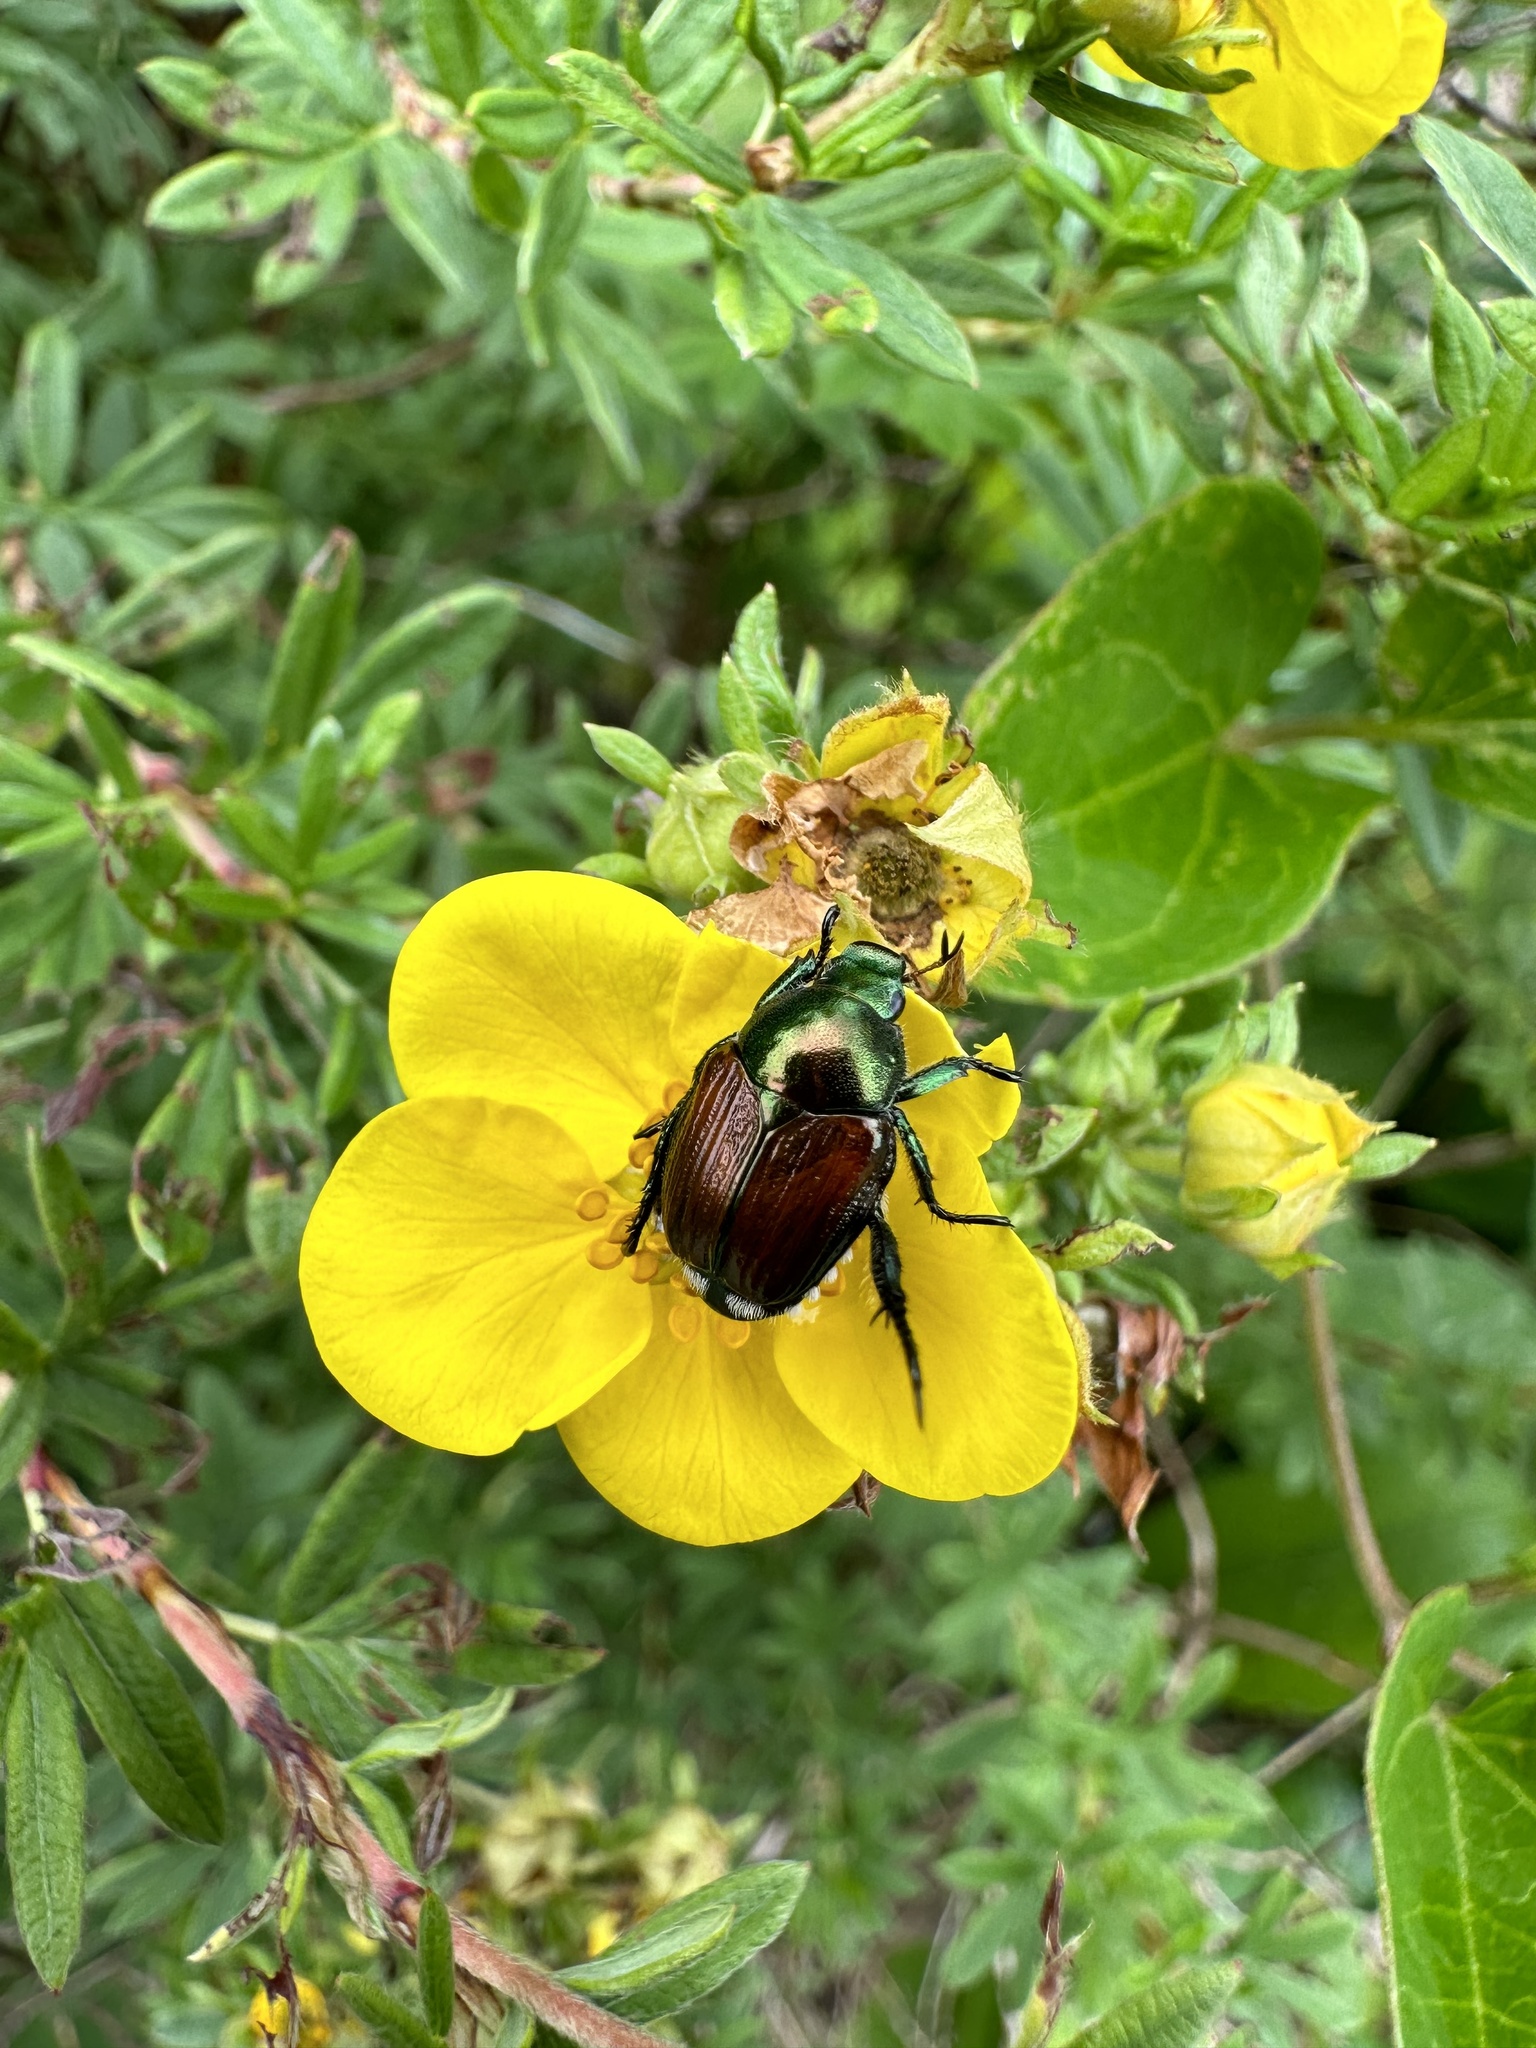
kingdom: Animalia
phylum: Arthropoda
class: Insecta
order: Coleoptera
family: Scarabaeidae
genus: Popillia
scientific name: Popillia japonica
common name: Japanese beetle
